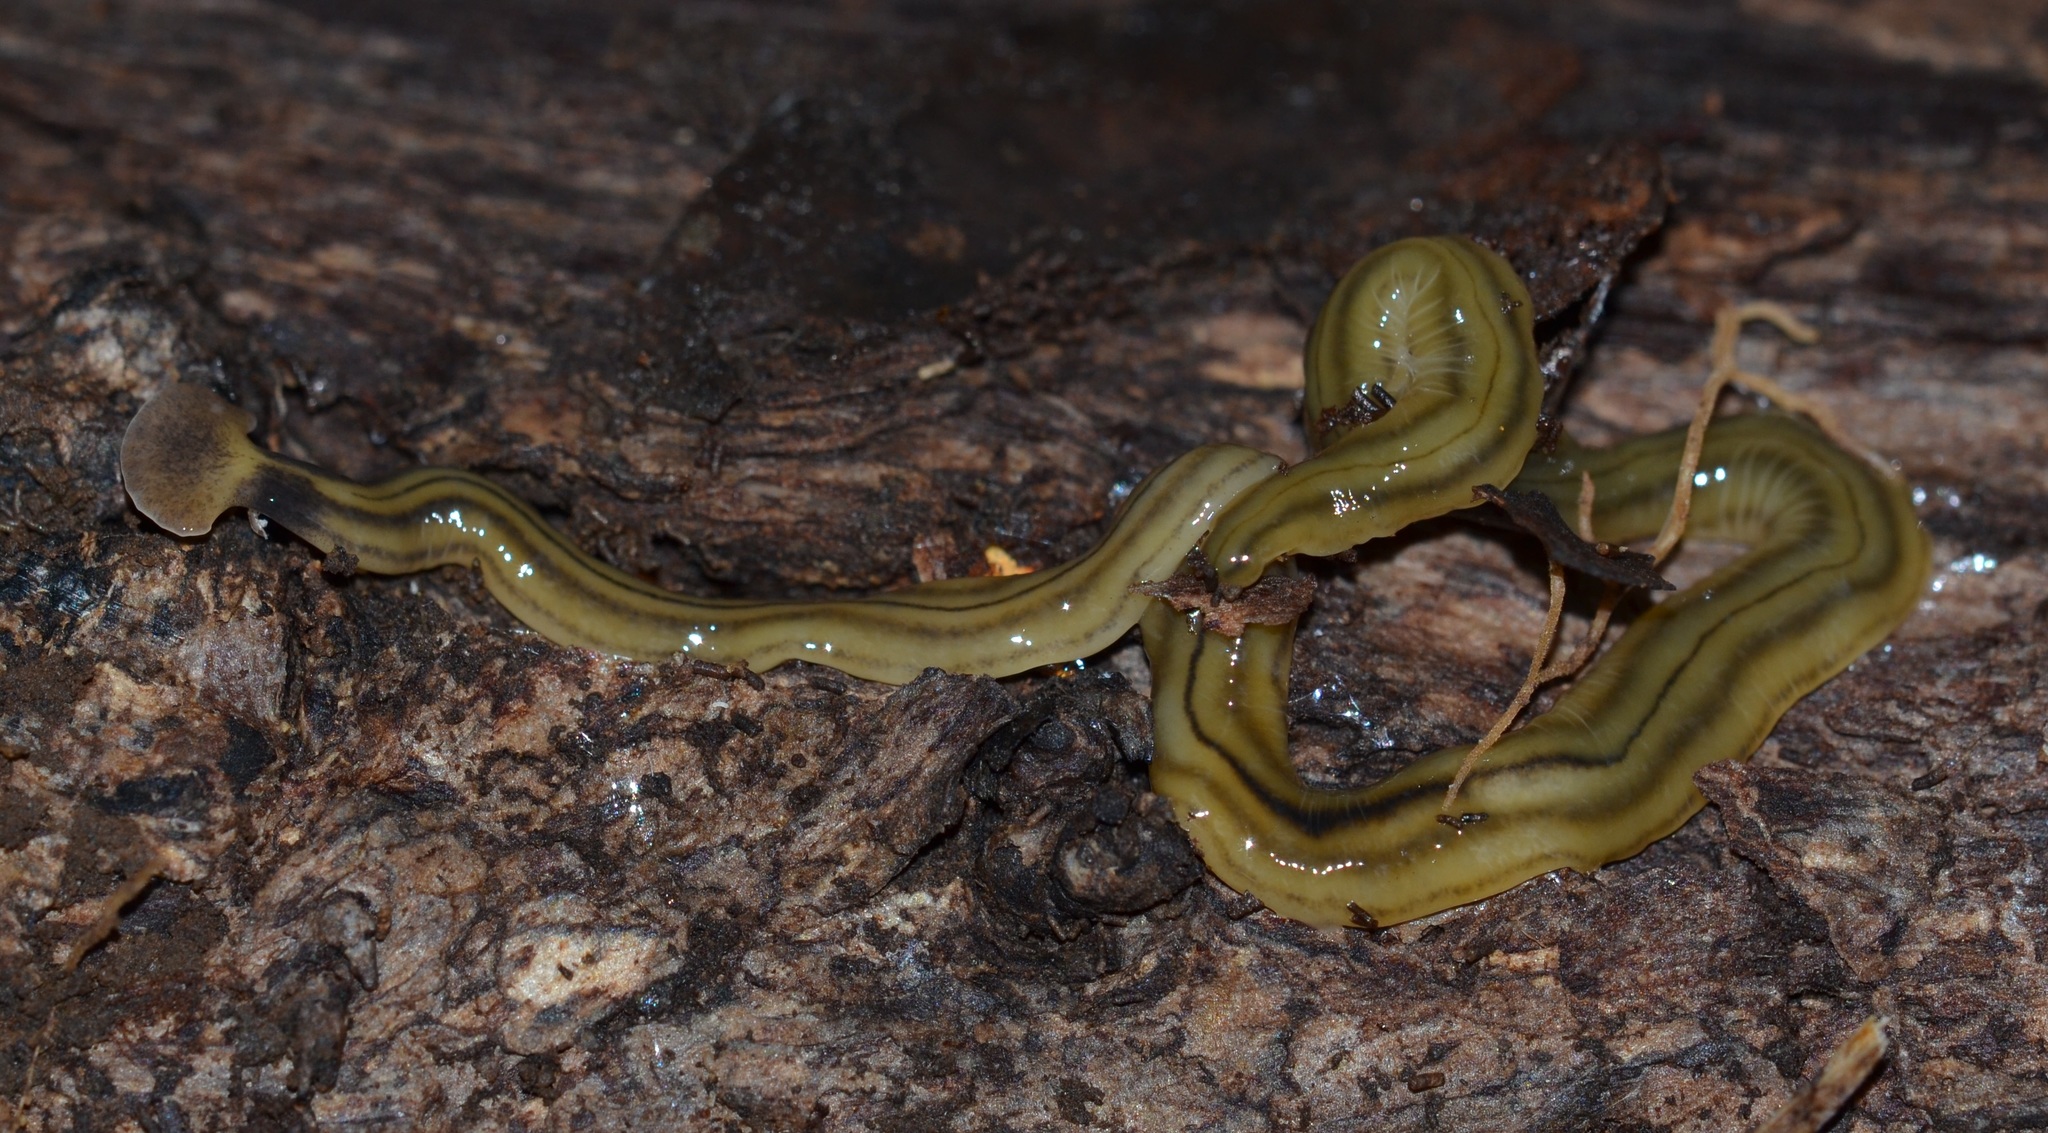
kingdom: Animalia
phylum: Platyhelminthes
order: Tricladida
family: Geoplanidae
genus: Bipalium
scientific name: Bipalium kewense
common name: Hammerhead flatworm
